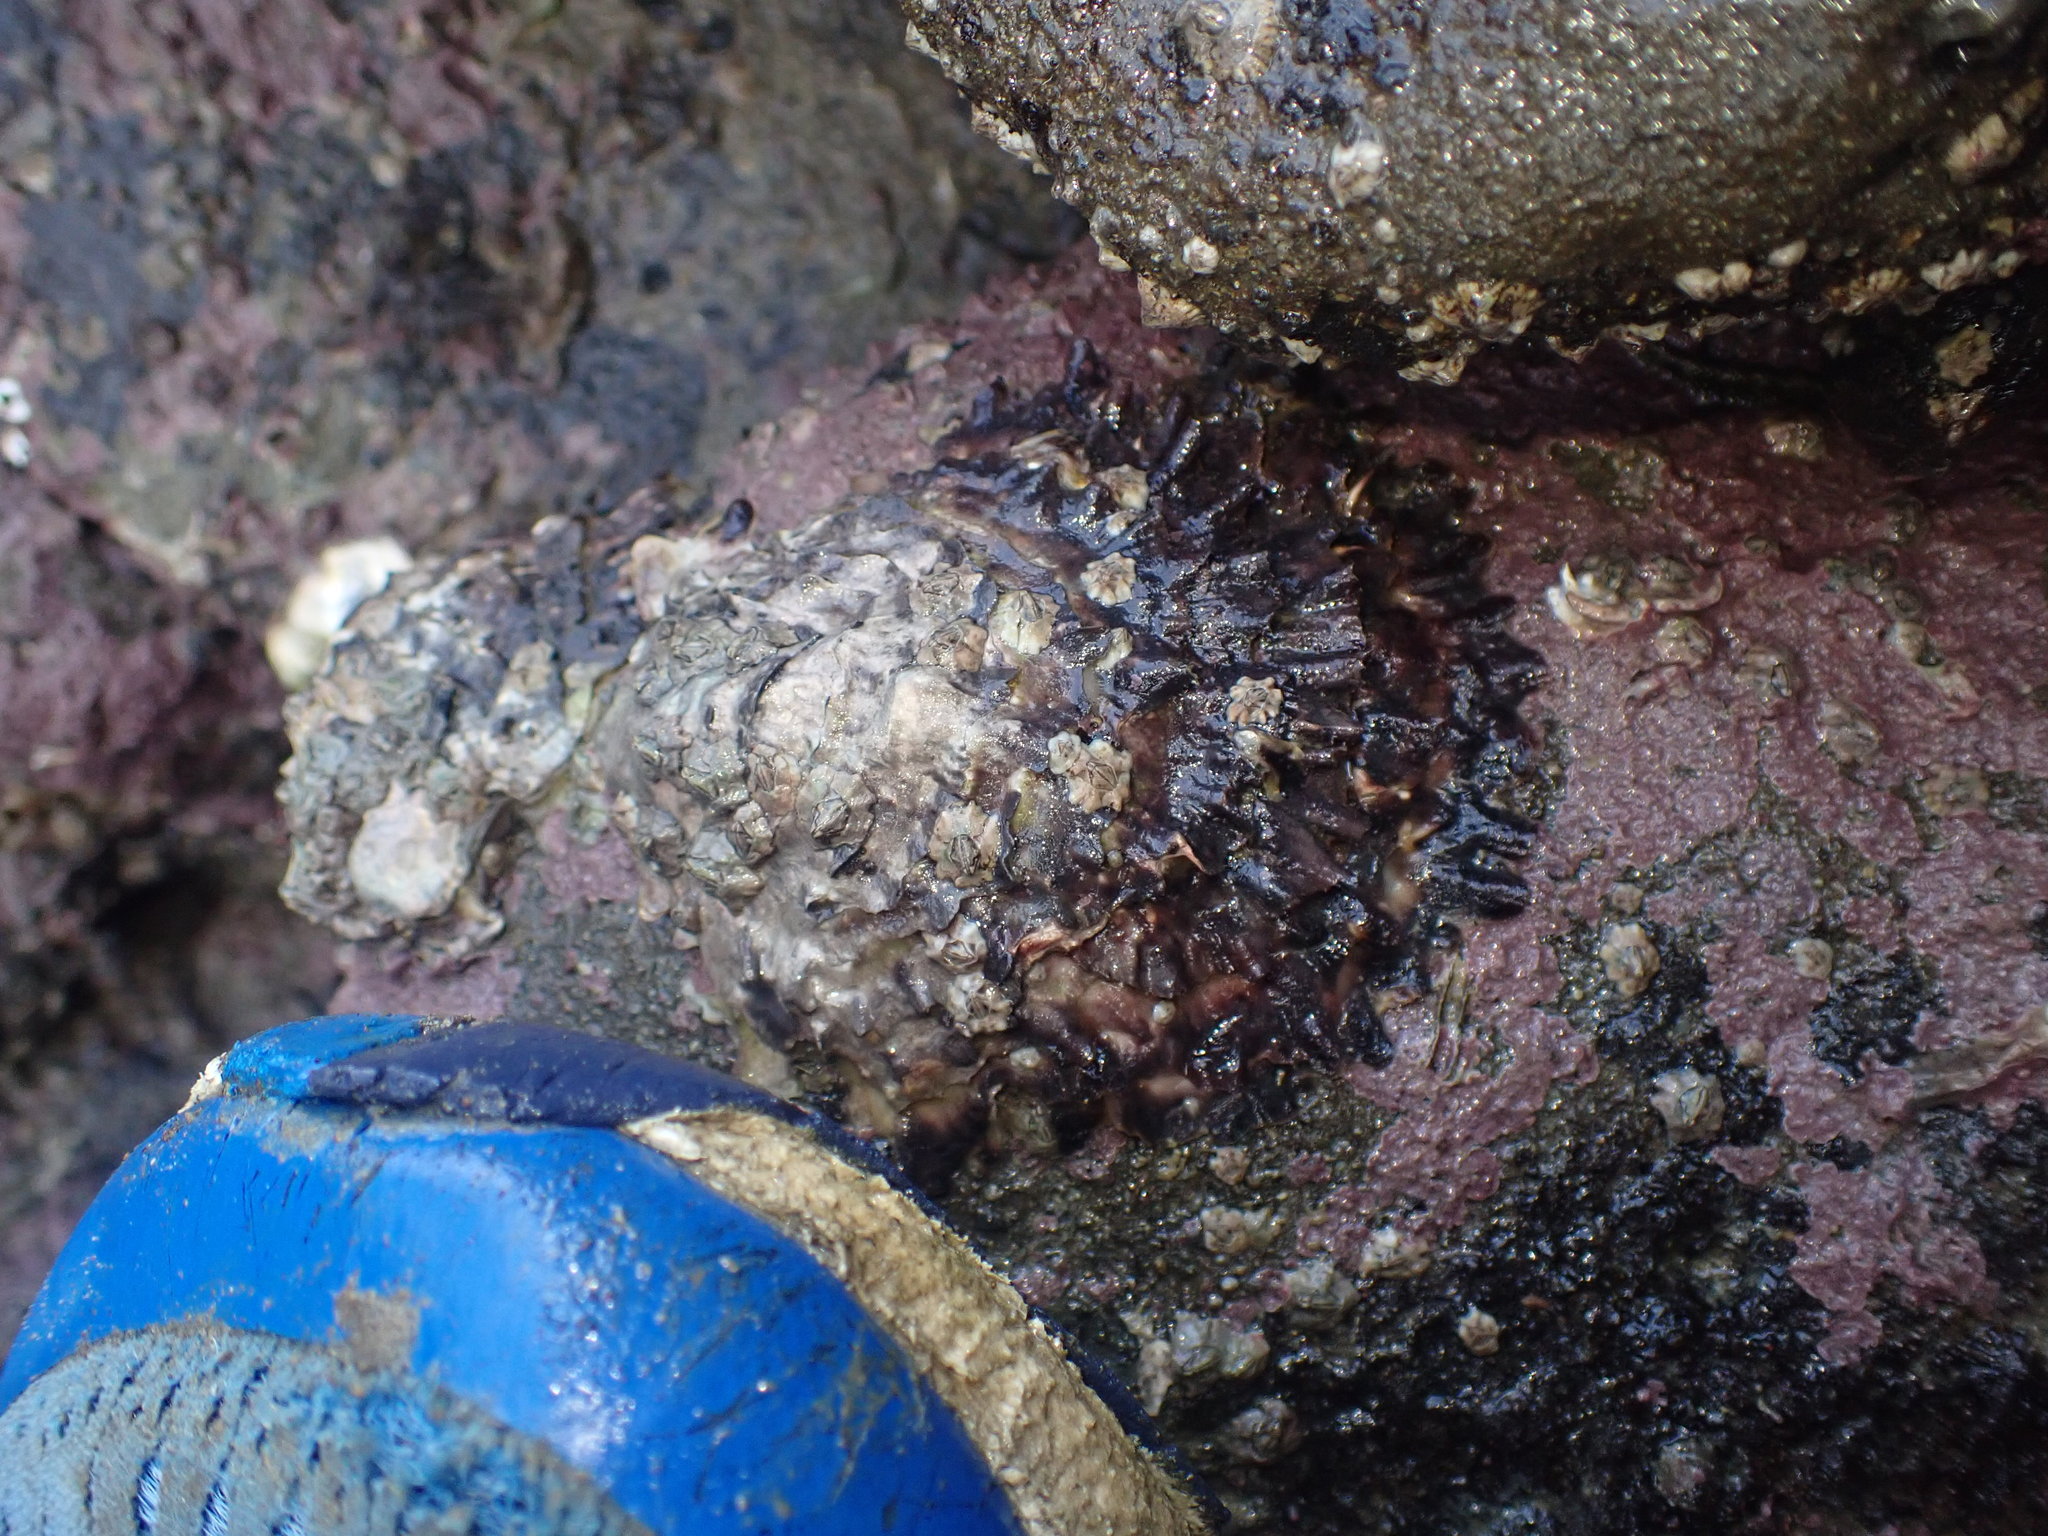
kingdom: Animalia
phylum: Mollusca
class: Bivalvia
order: Ostreida
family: Ostreidae
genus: Magallana
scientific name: Magallana gigas
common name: Pacific oyster
